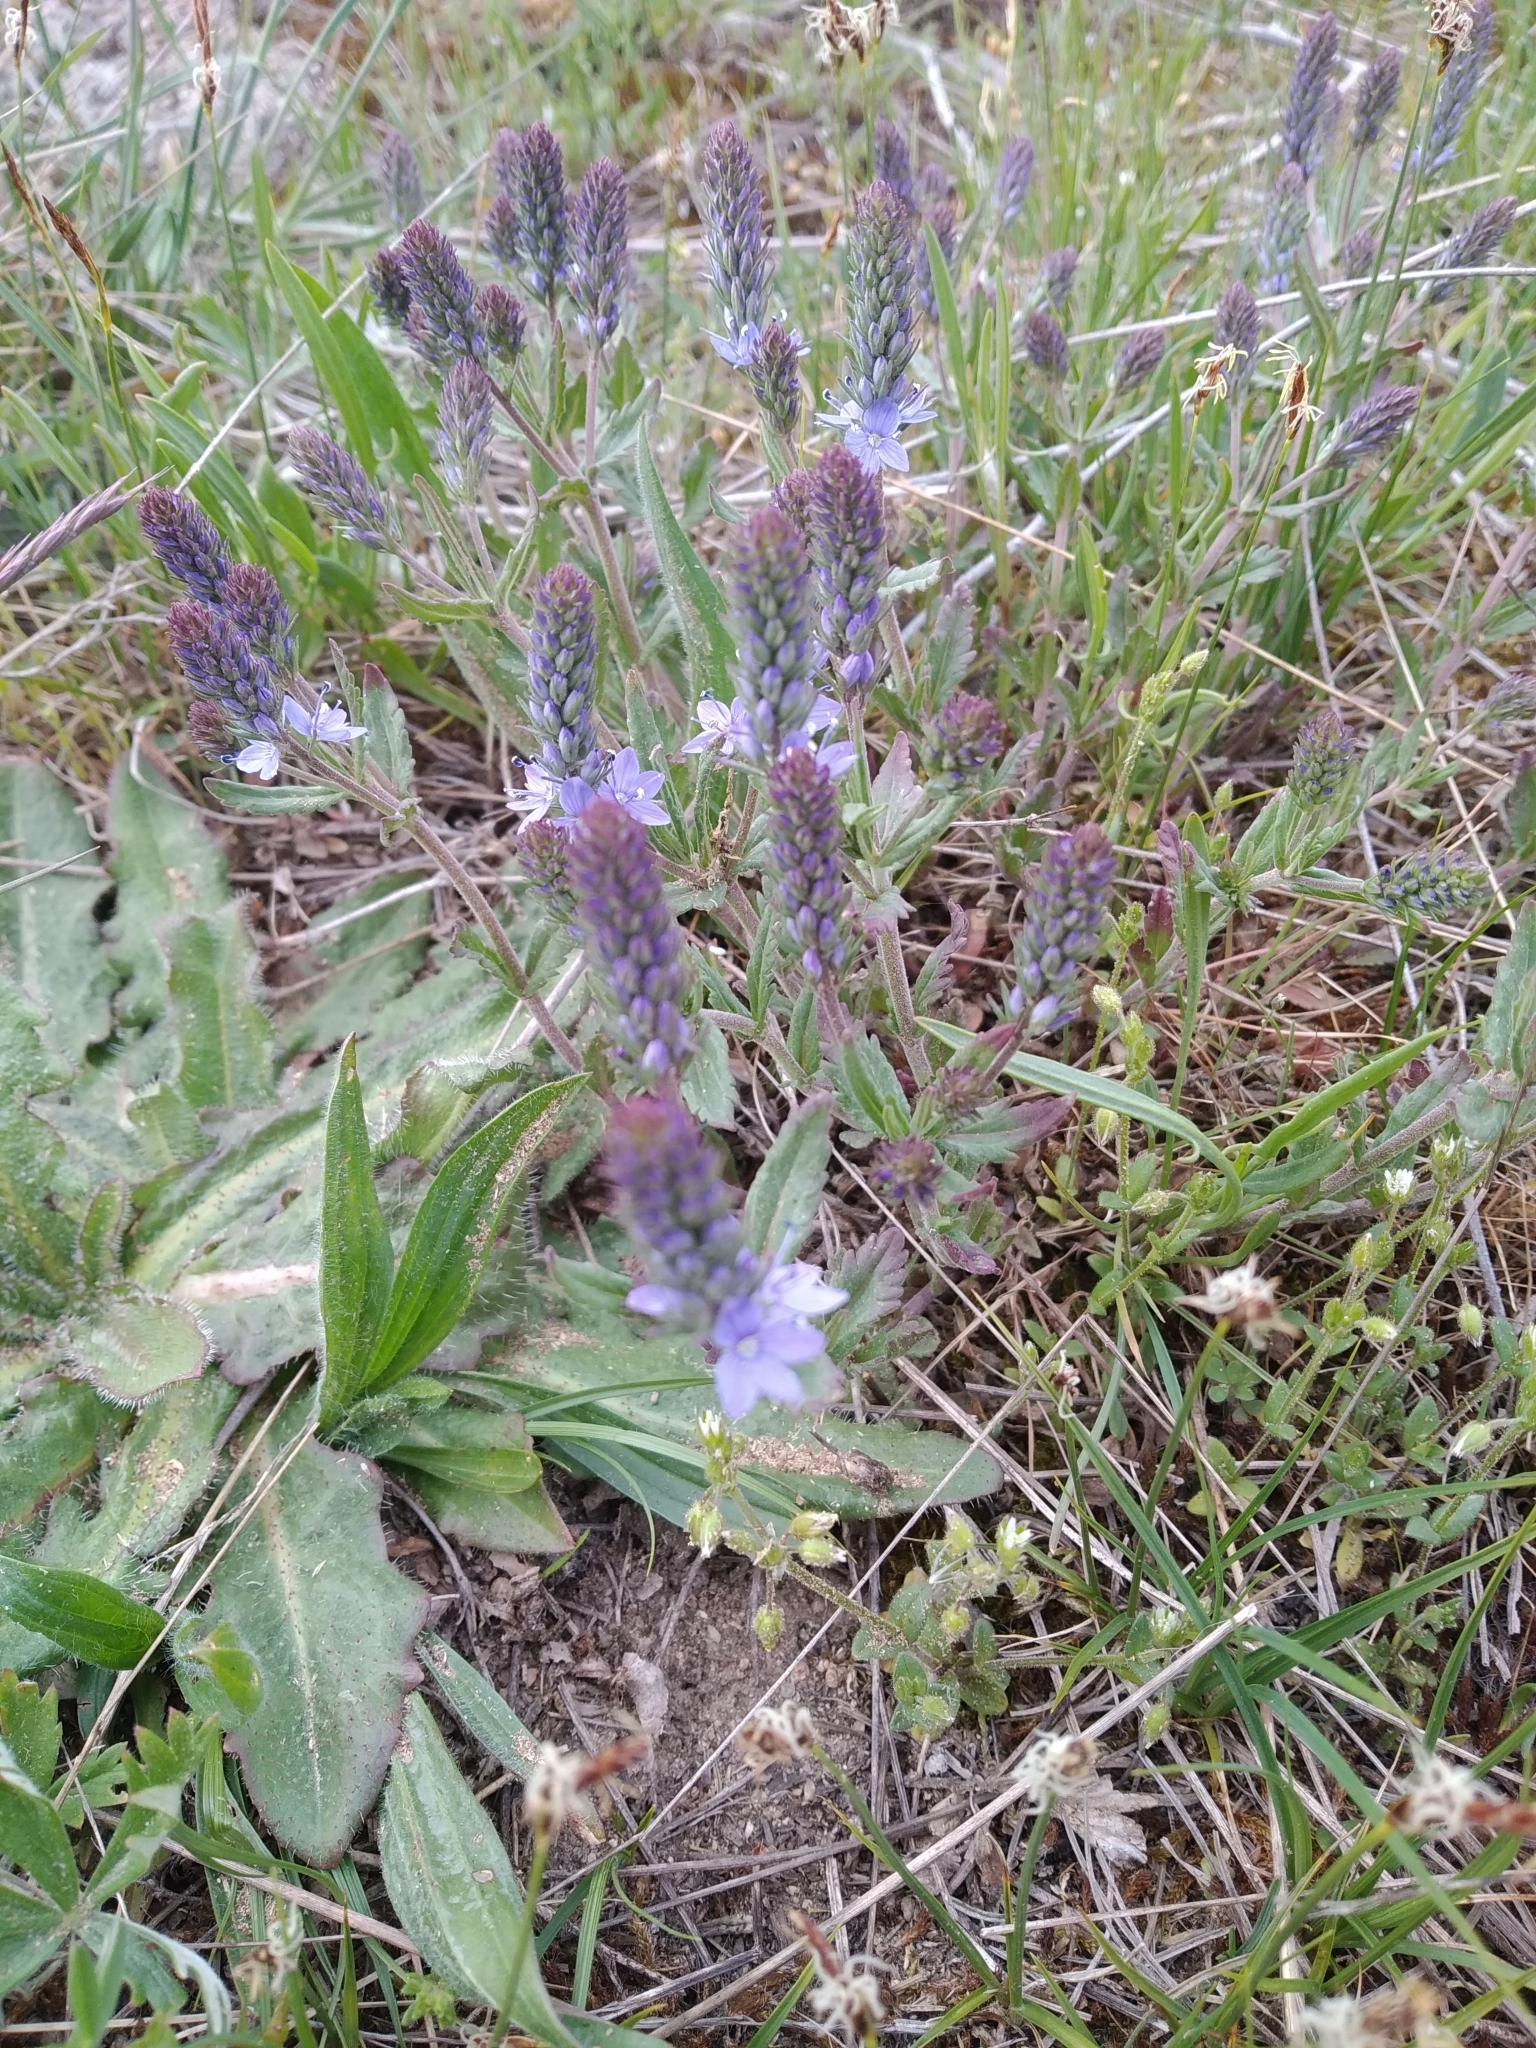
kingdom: Plantae
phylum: Tracheophyta
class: Magnoliopsida
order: Lamiales
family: Plantaginaceae
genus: Veronica
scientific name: Veronica prostrata
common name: Prostrate speedwell
